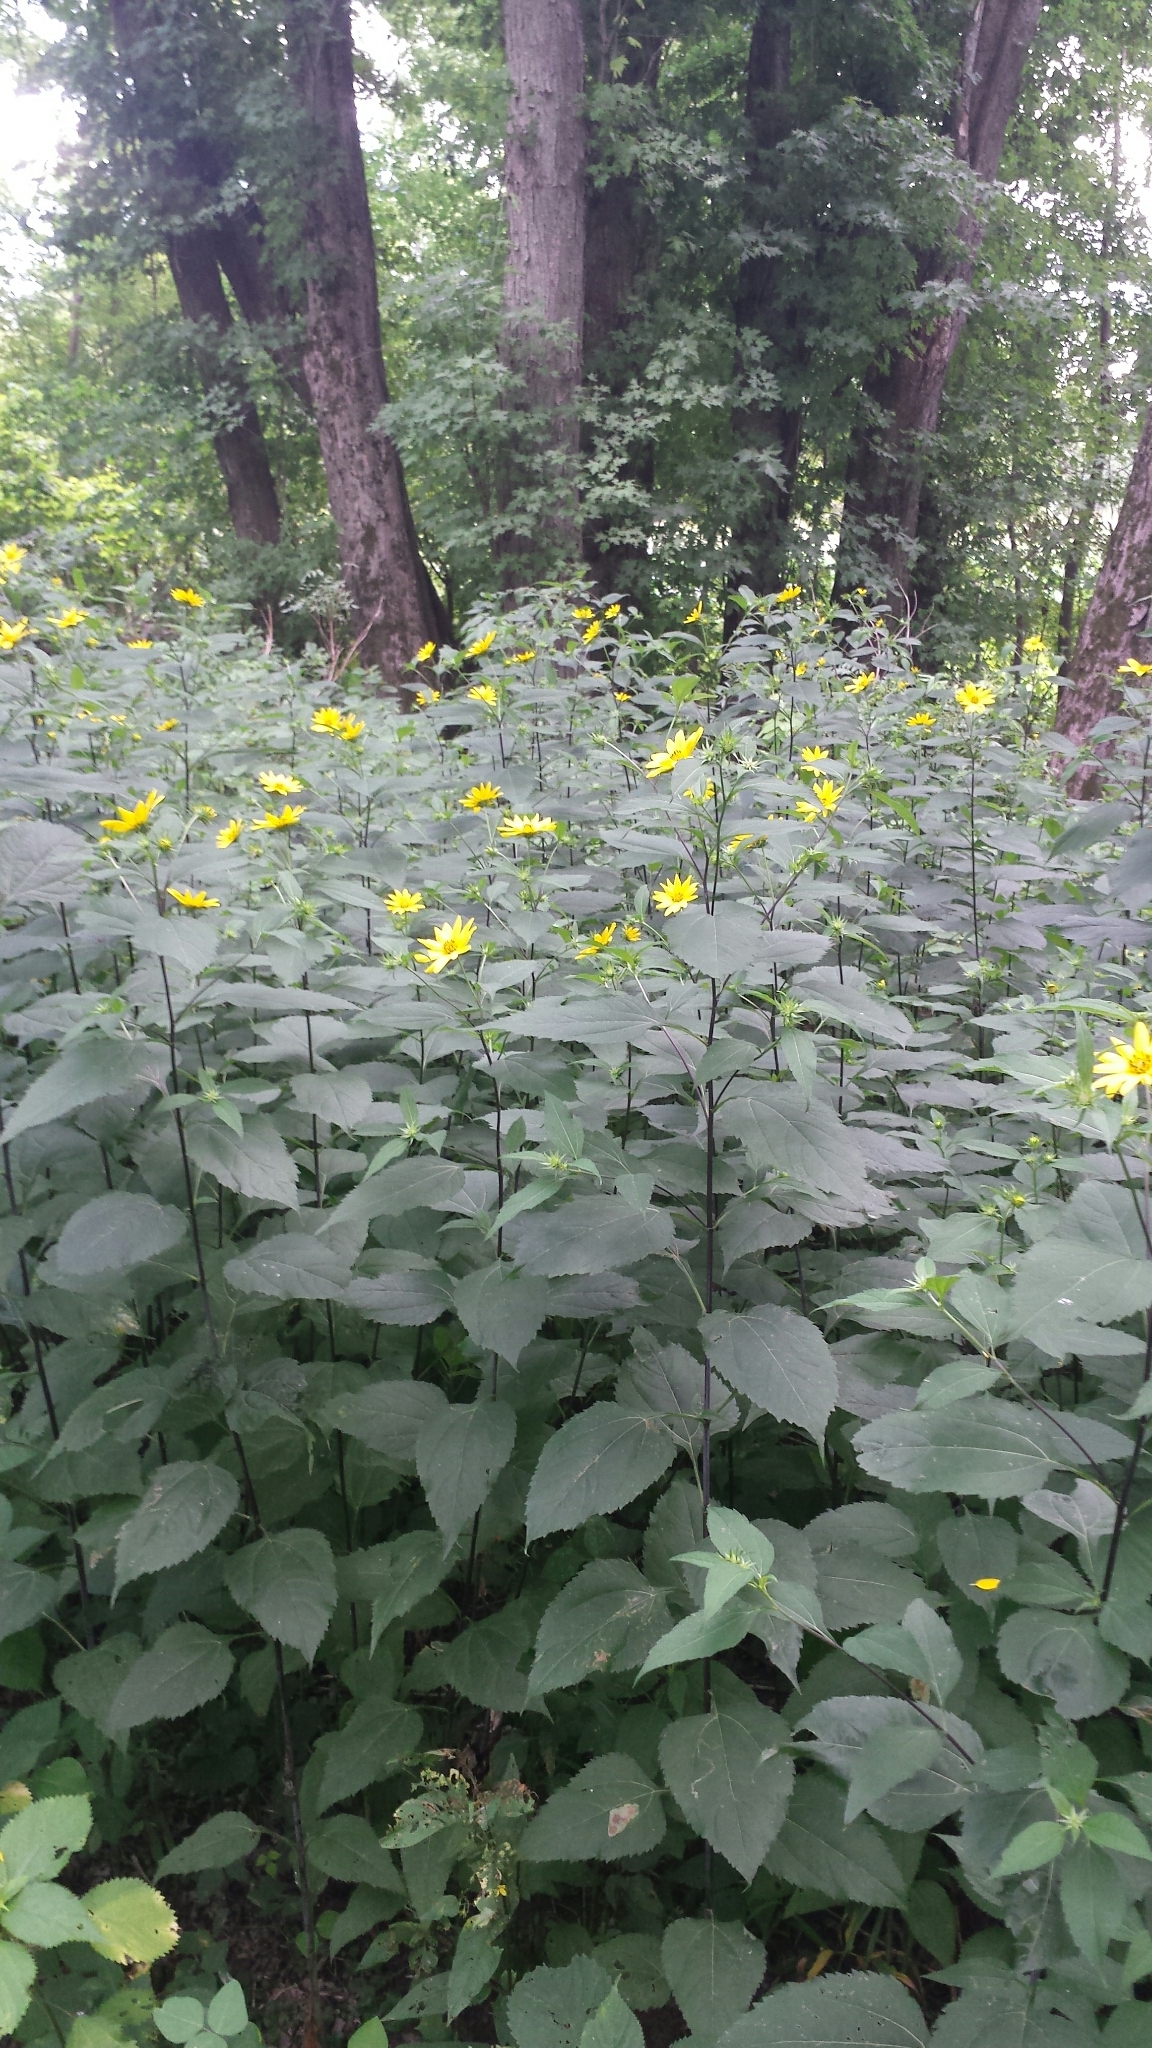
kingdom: Plantae
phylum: Tracheophyta
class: Magnoliopsida
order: Asterales
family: Asteraceae
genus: Helianthus
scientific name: Helianthus decapetalus
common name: Thin-leaved sunflower
